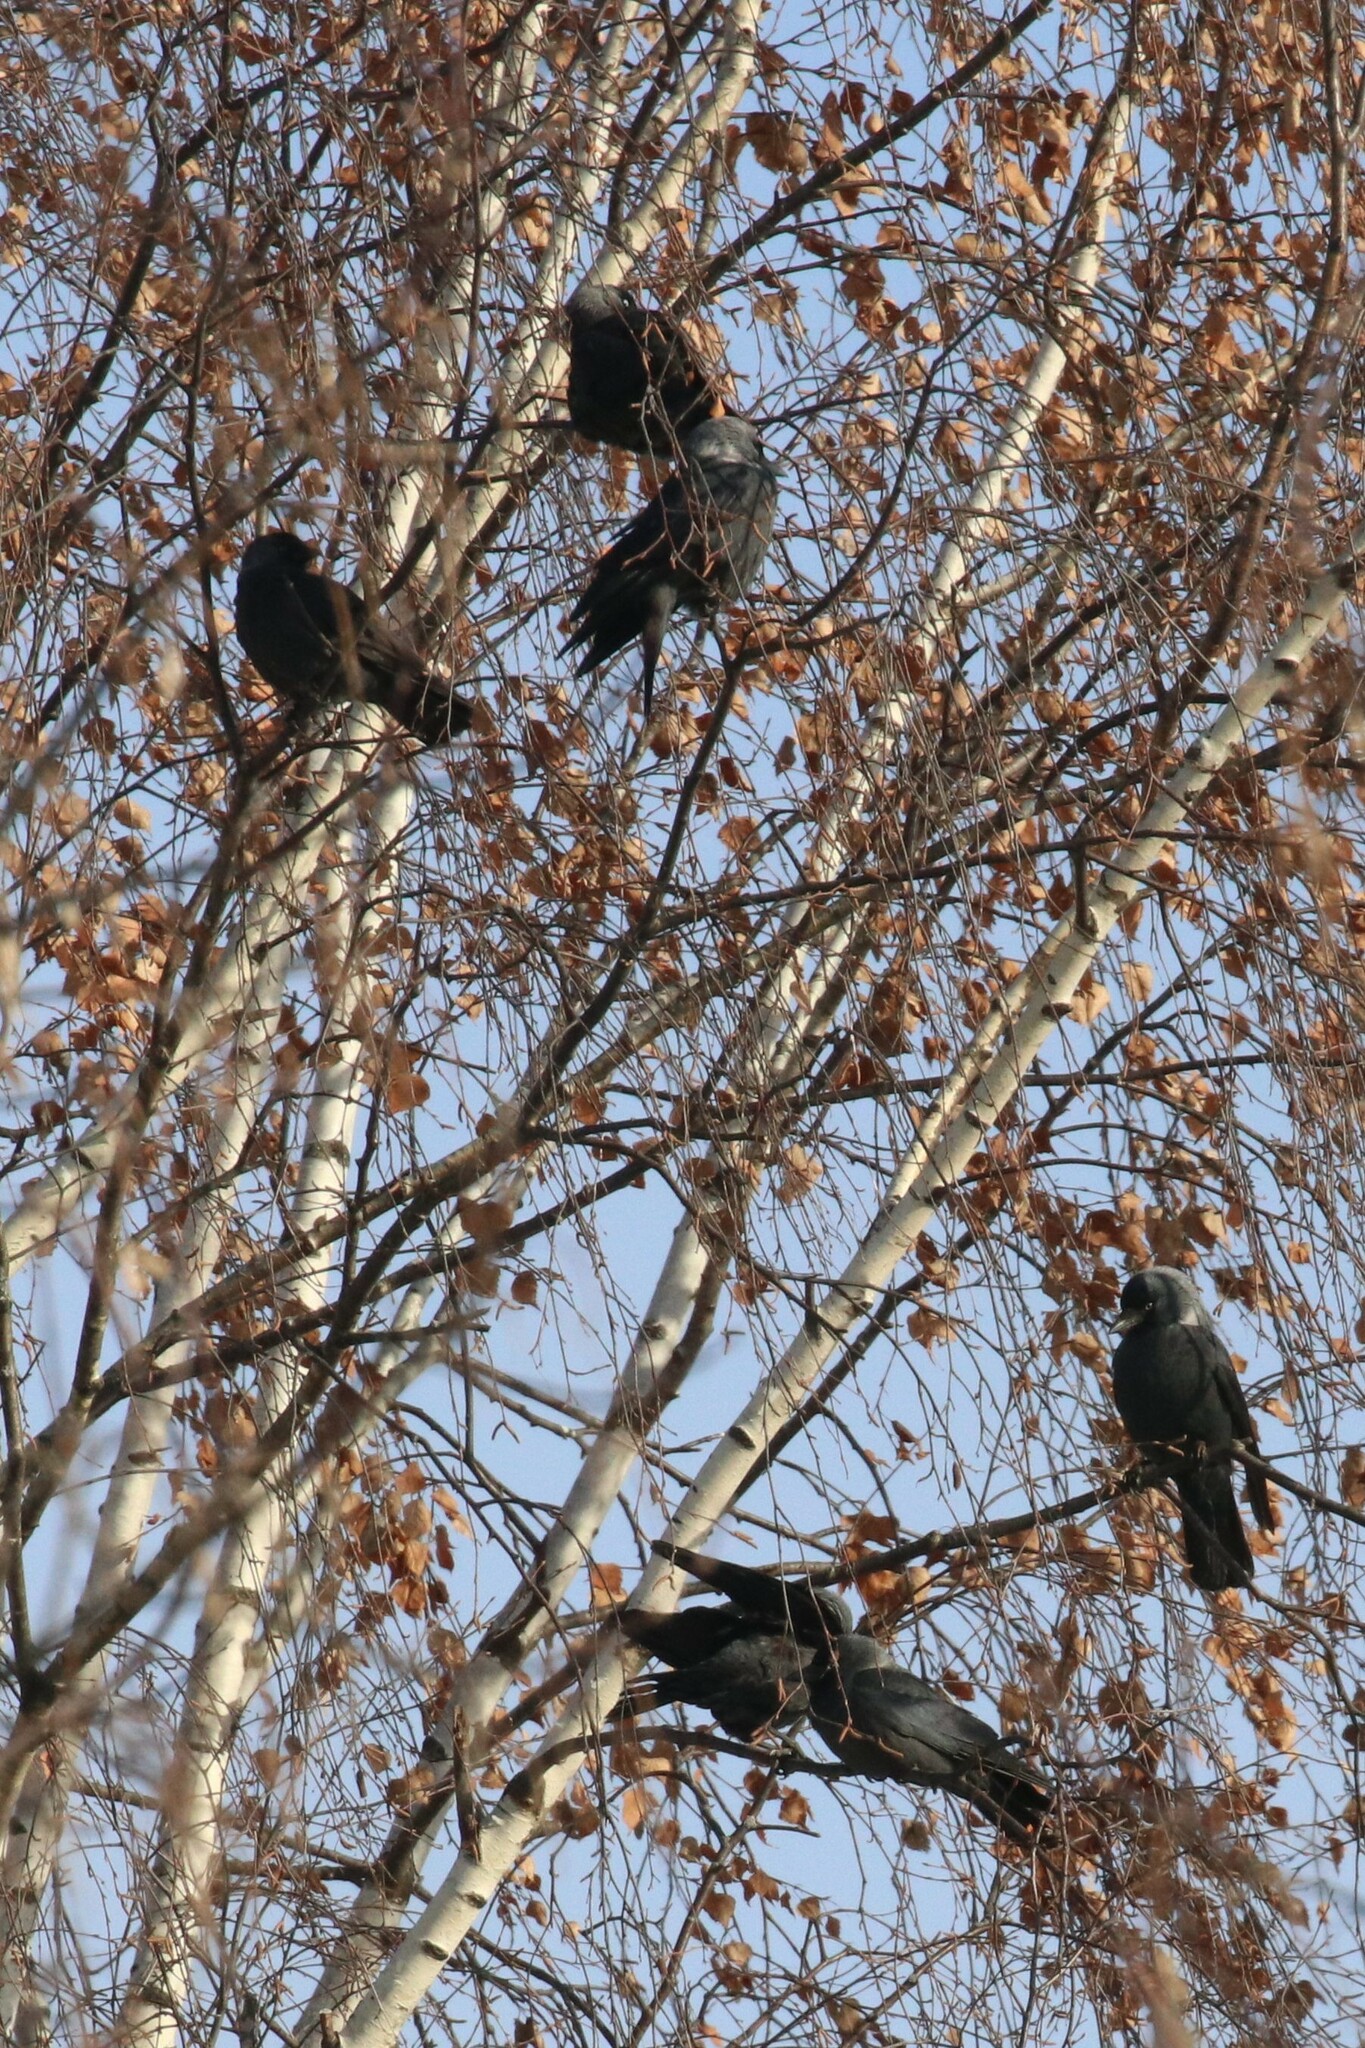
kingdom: Animalia
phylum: Chordata
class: Aves
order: Passeriformes
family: Corvidae
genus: Coloeus
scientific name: Coloeus monedula
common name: Western jackdaw
